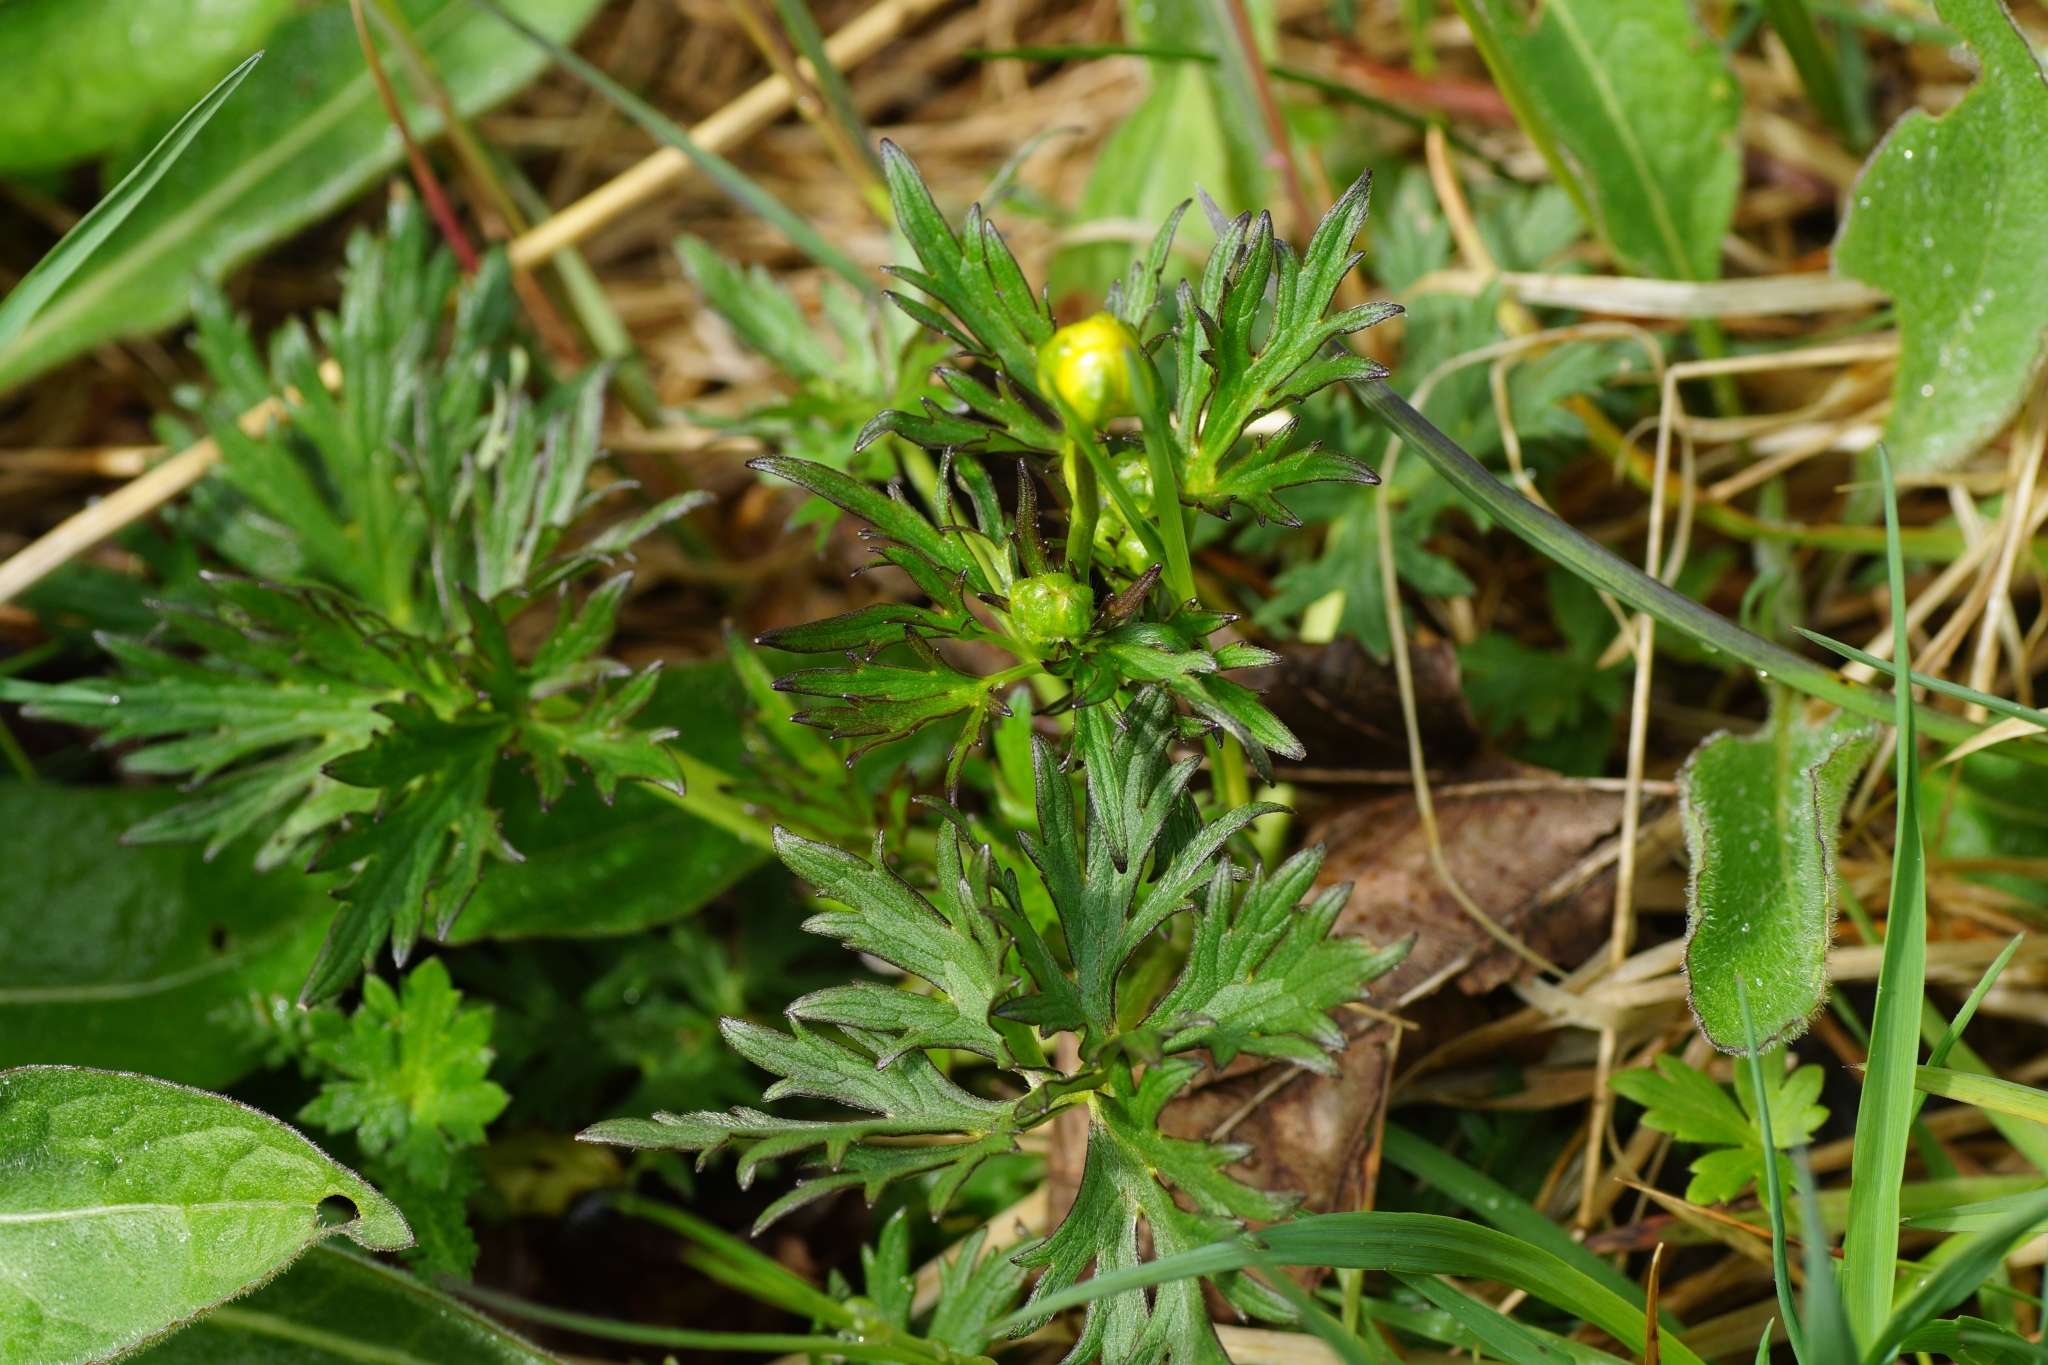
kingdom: Plantae
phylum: Tracheophyta
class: Magnoliopsida
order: Ranunculales
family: Ranunculaceae
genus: Ranunculus
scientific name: Ranunculus acris
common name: Meadow buttercup
